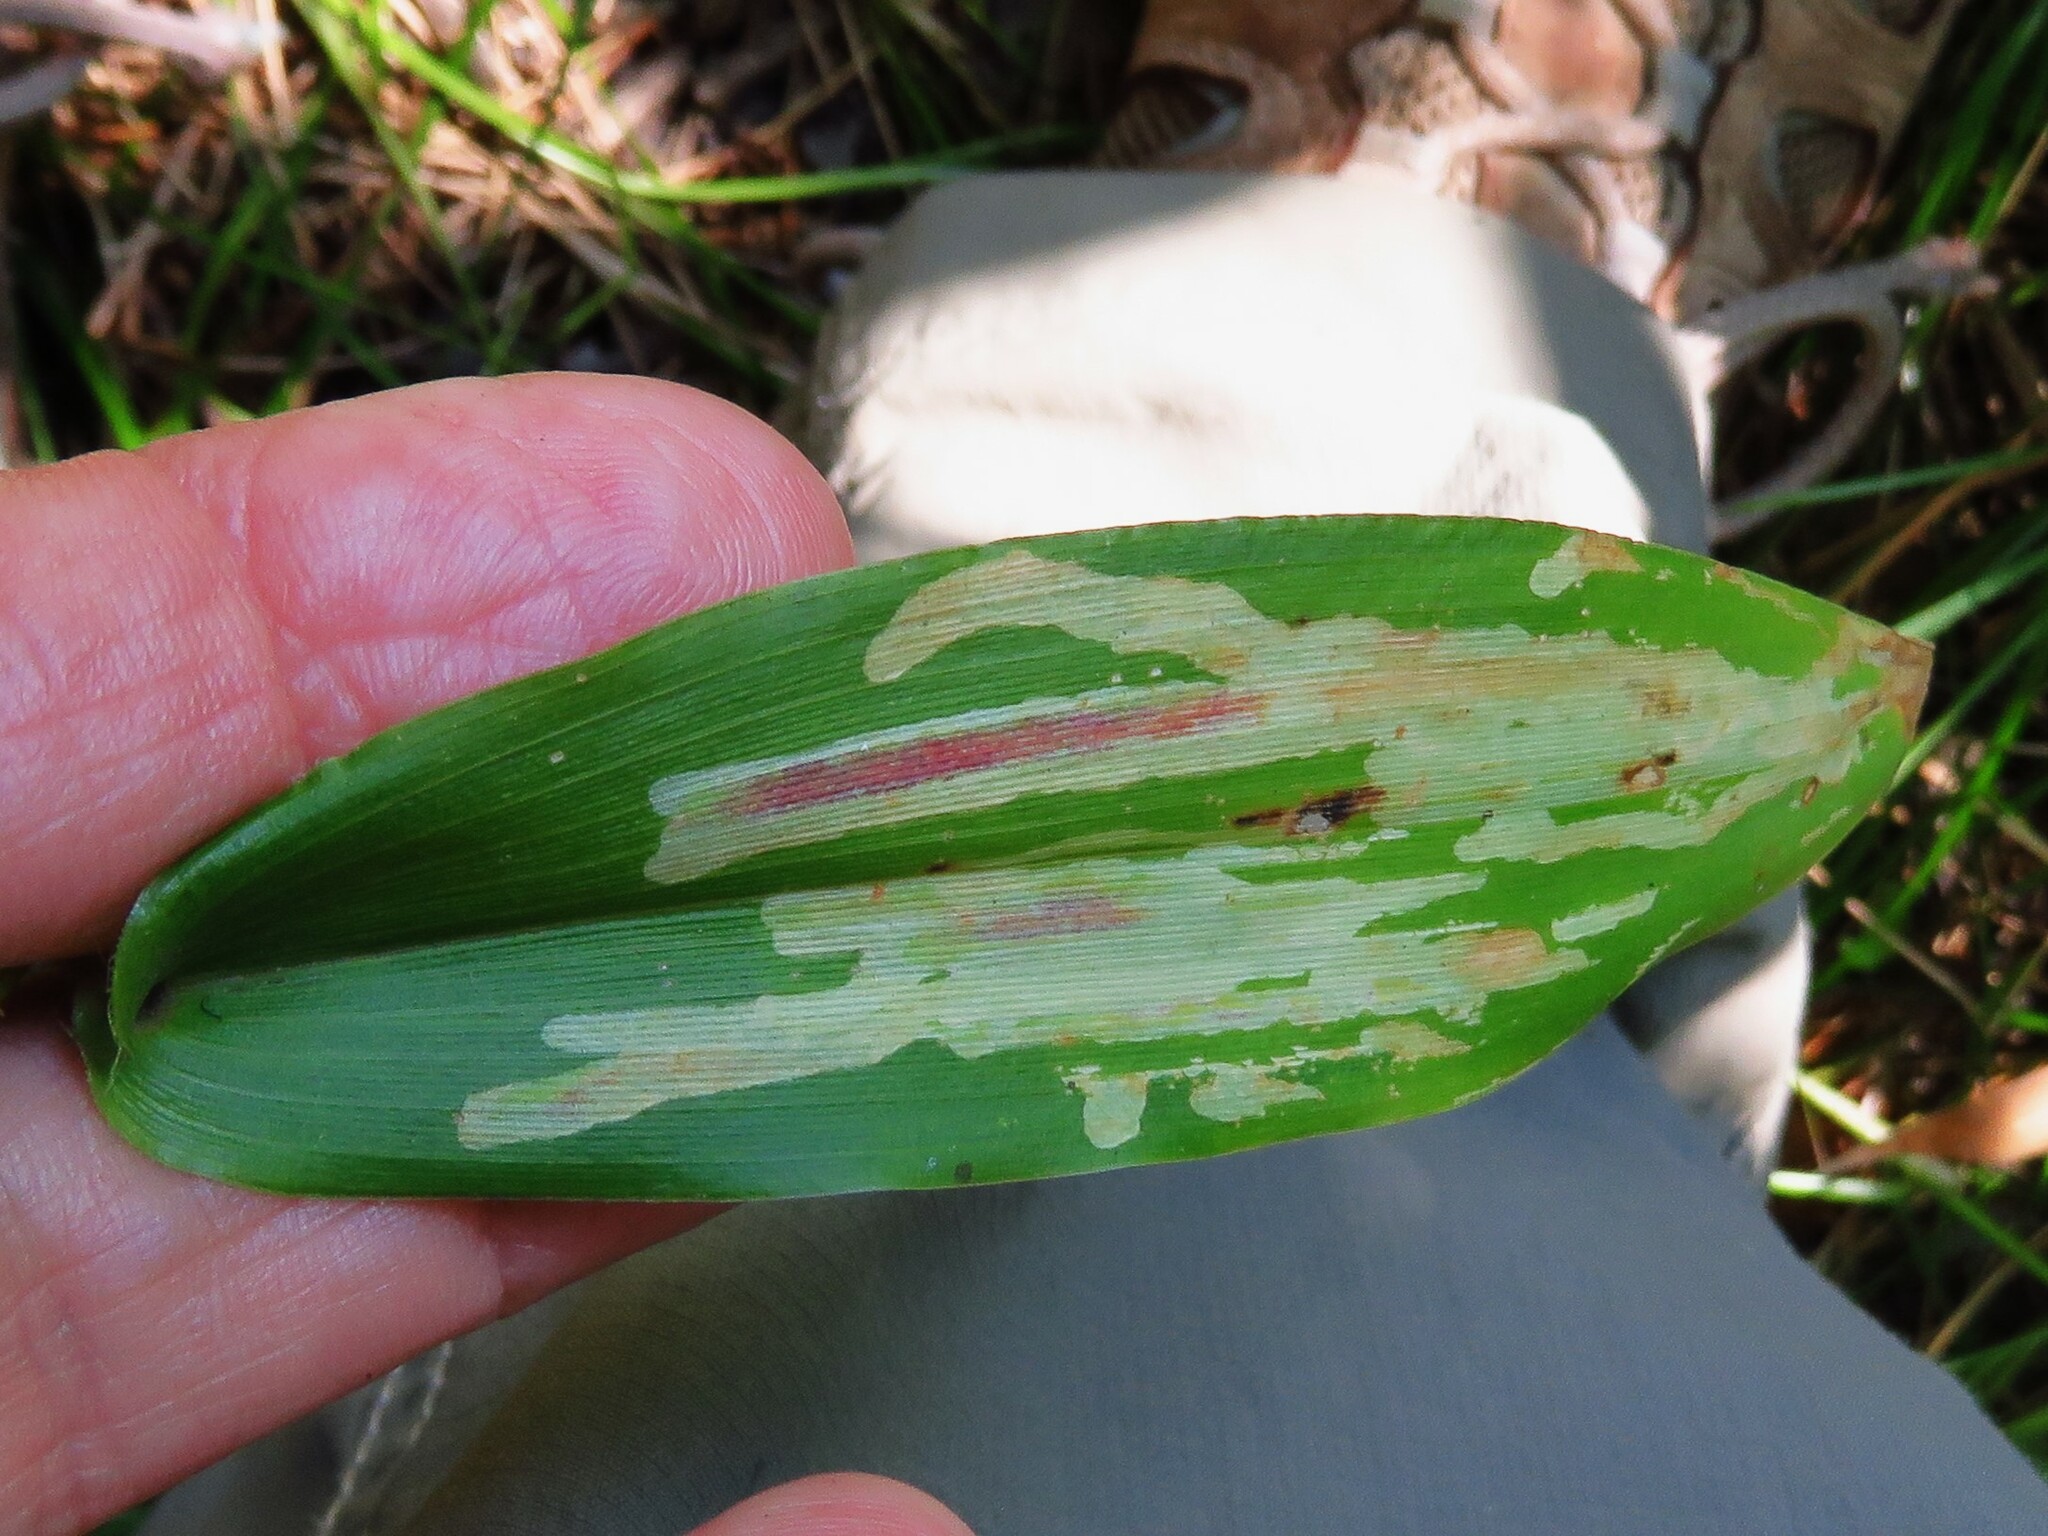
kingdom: Animalia
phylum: Arthropoda
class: Insecta
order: Diptera
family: Agromyzidae
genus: Cerodontha
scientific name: Cerodontha angulata
